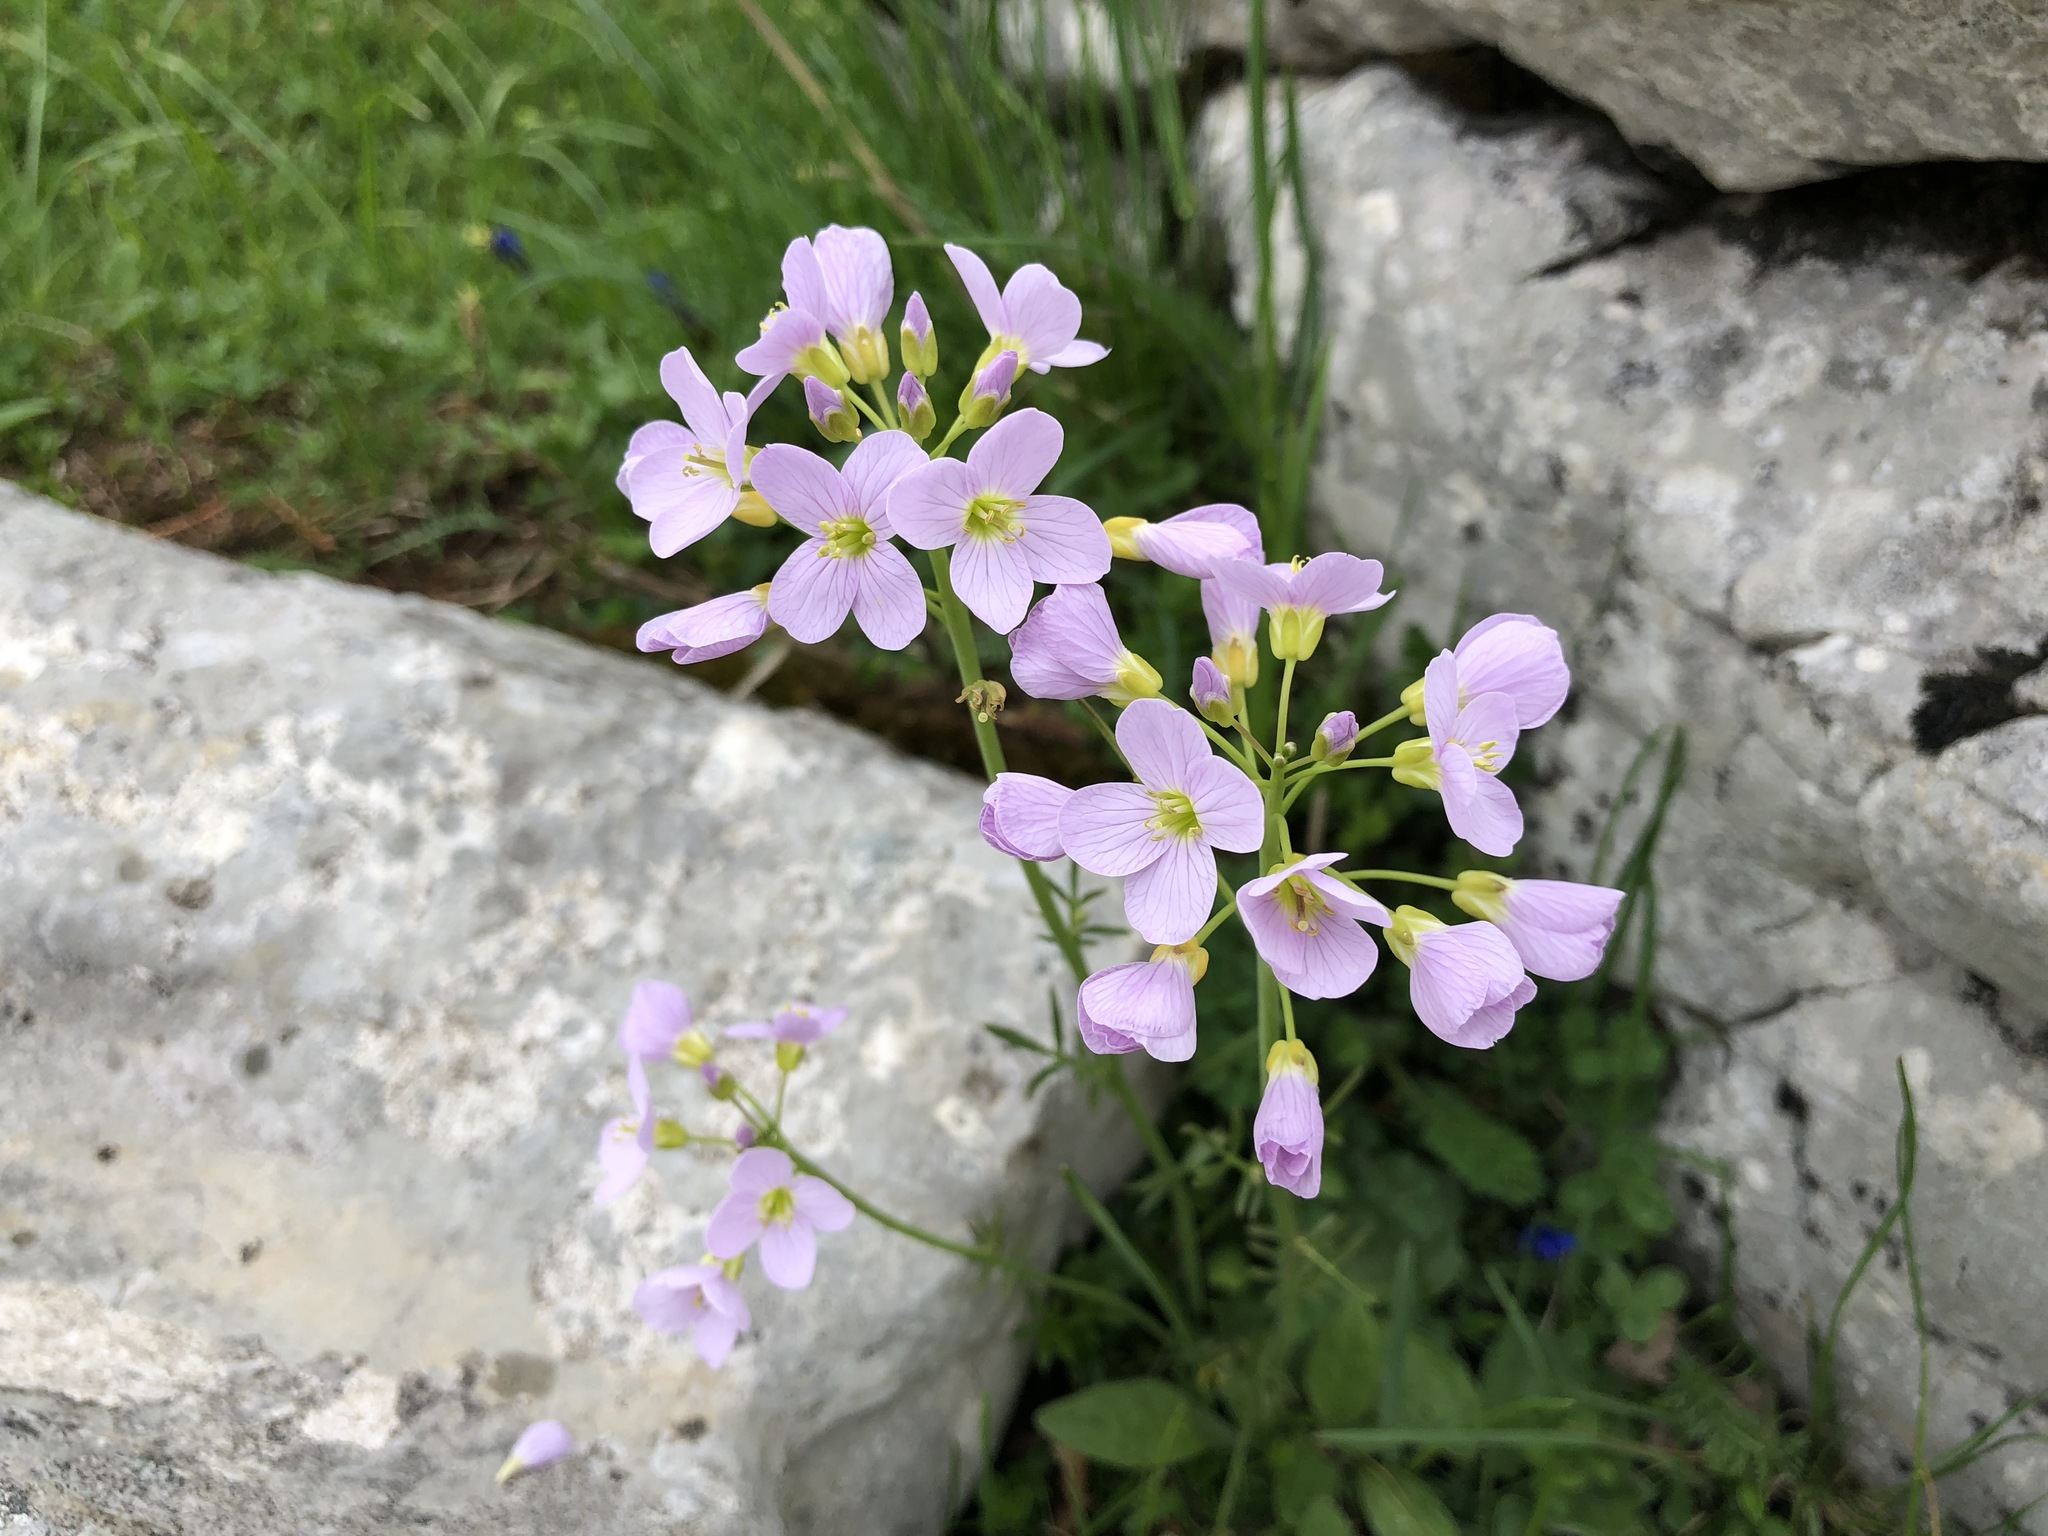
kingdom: Plantae
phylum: Tracheophyta
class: Magnoliopsida
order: Brassicales
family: Brassicaceae
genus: Cardamine
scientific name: Cardamine pratensis
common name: Cuckoo flower
